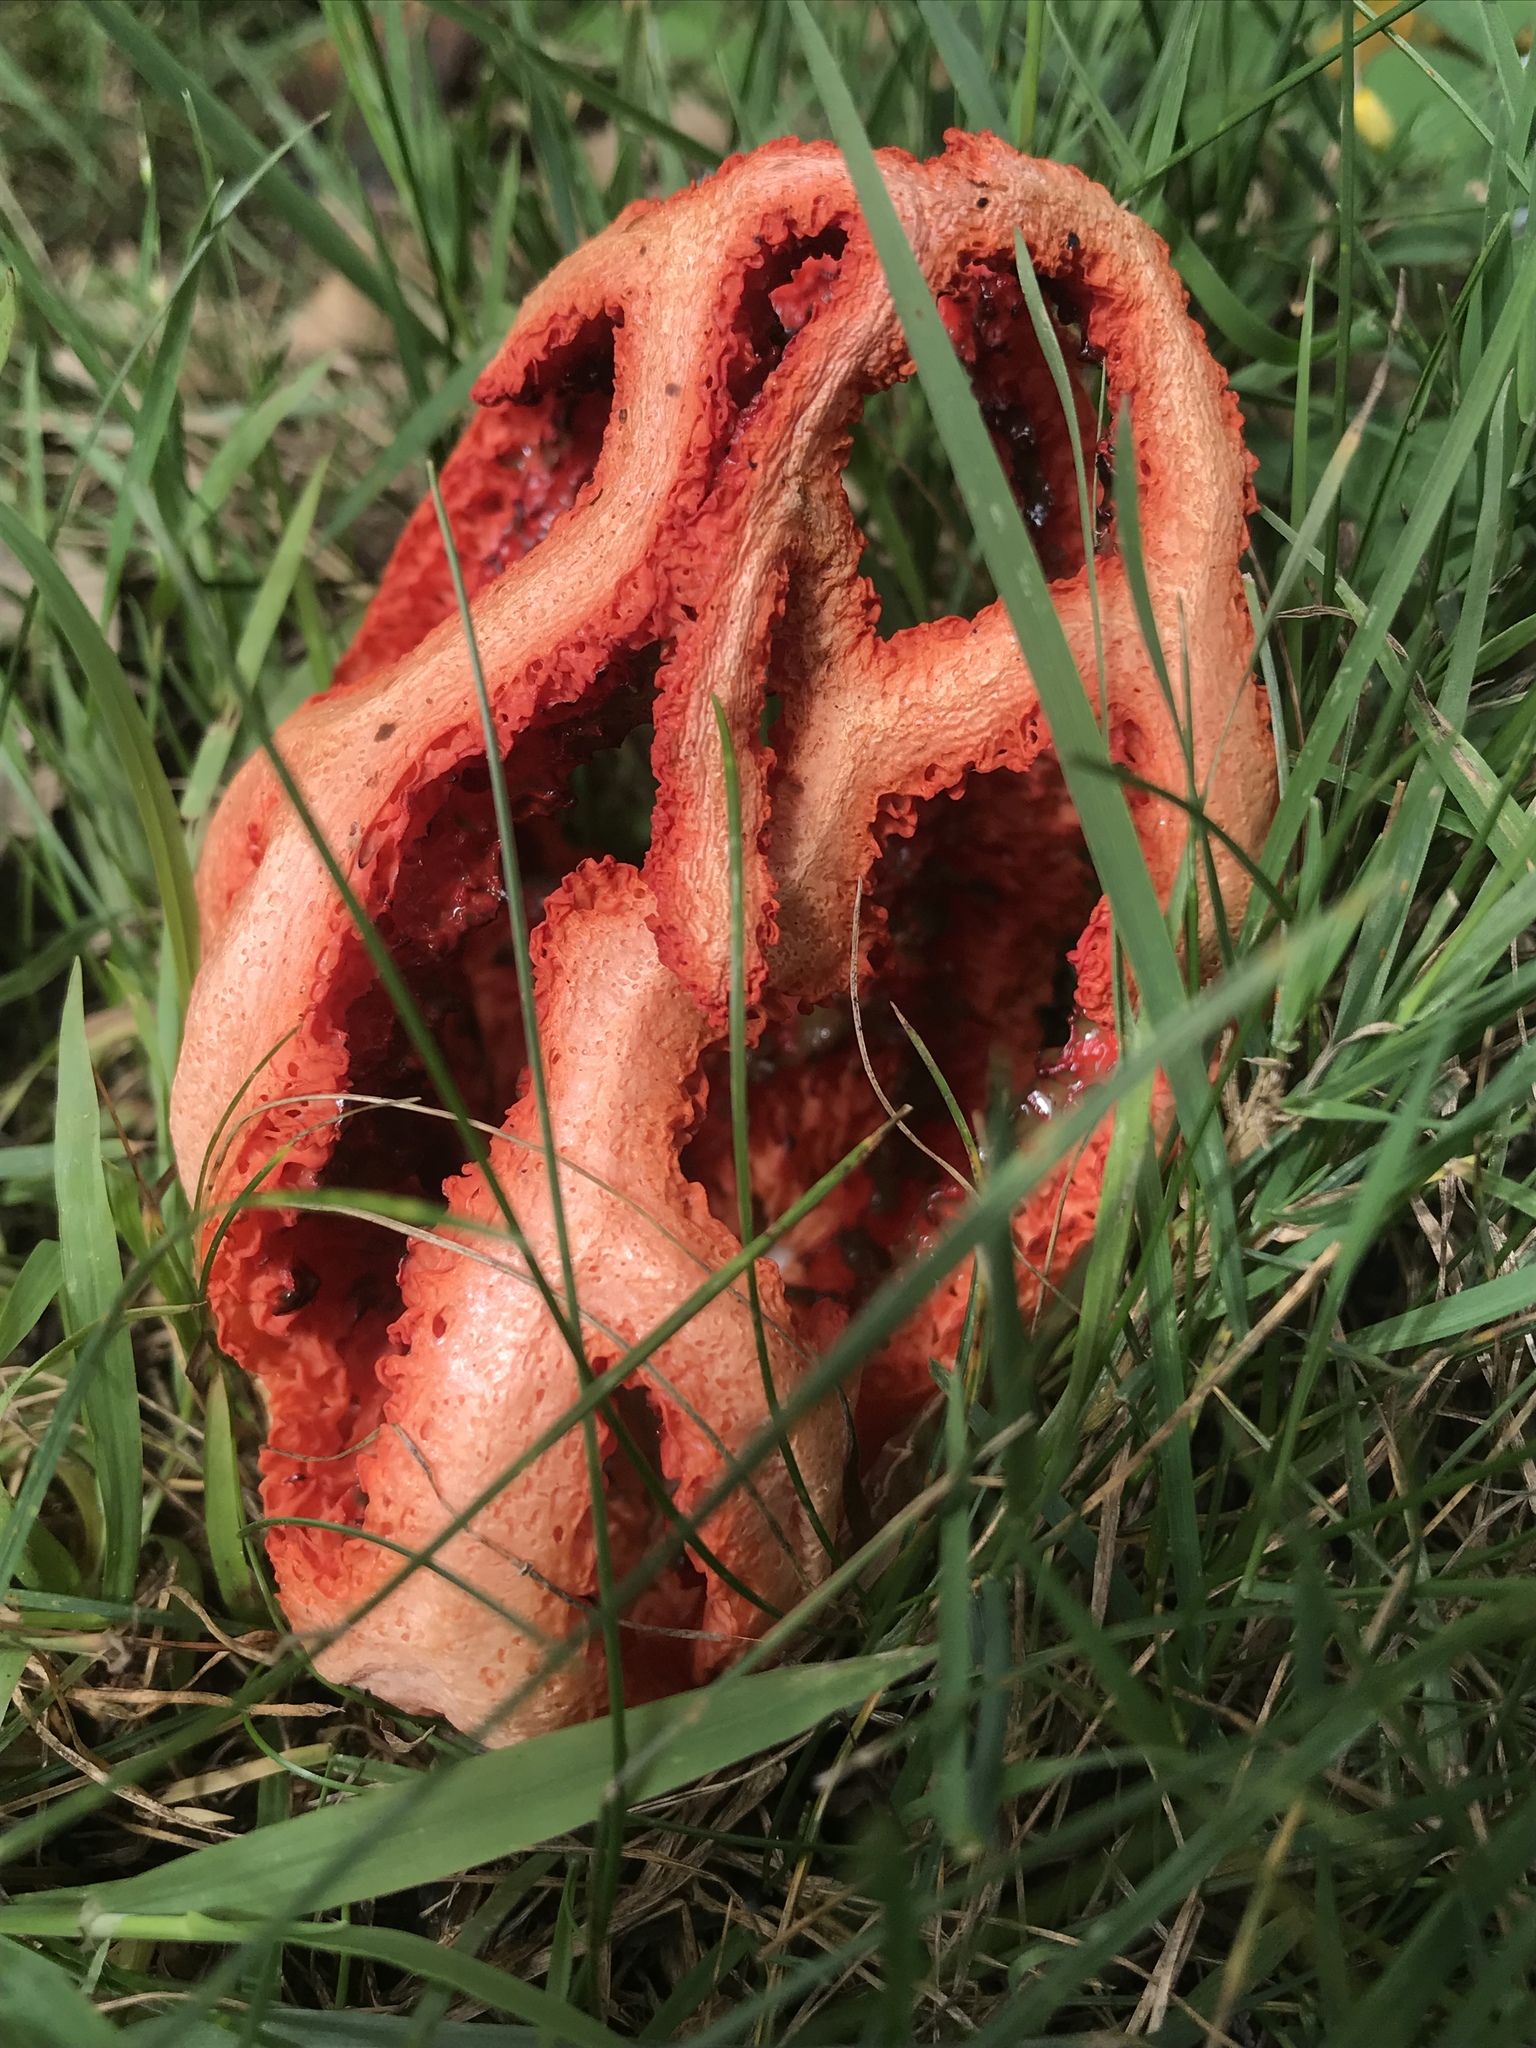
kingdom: Fungi
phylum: Basidiomycota
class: Agaricomycetes
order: Phallales
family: Phallaceae
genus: Clathrus
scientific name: Clathrus ruber
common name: Red cage
